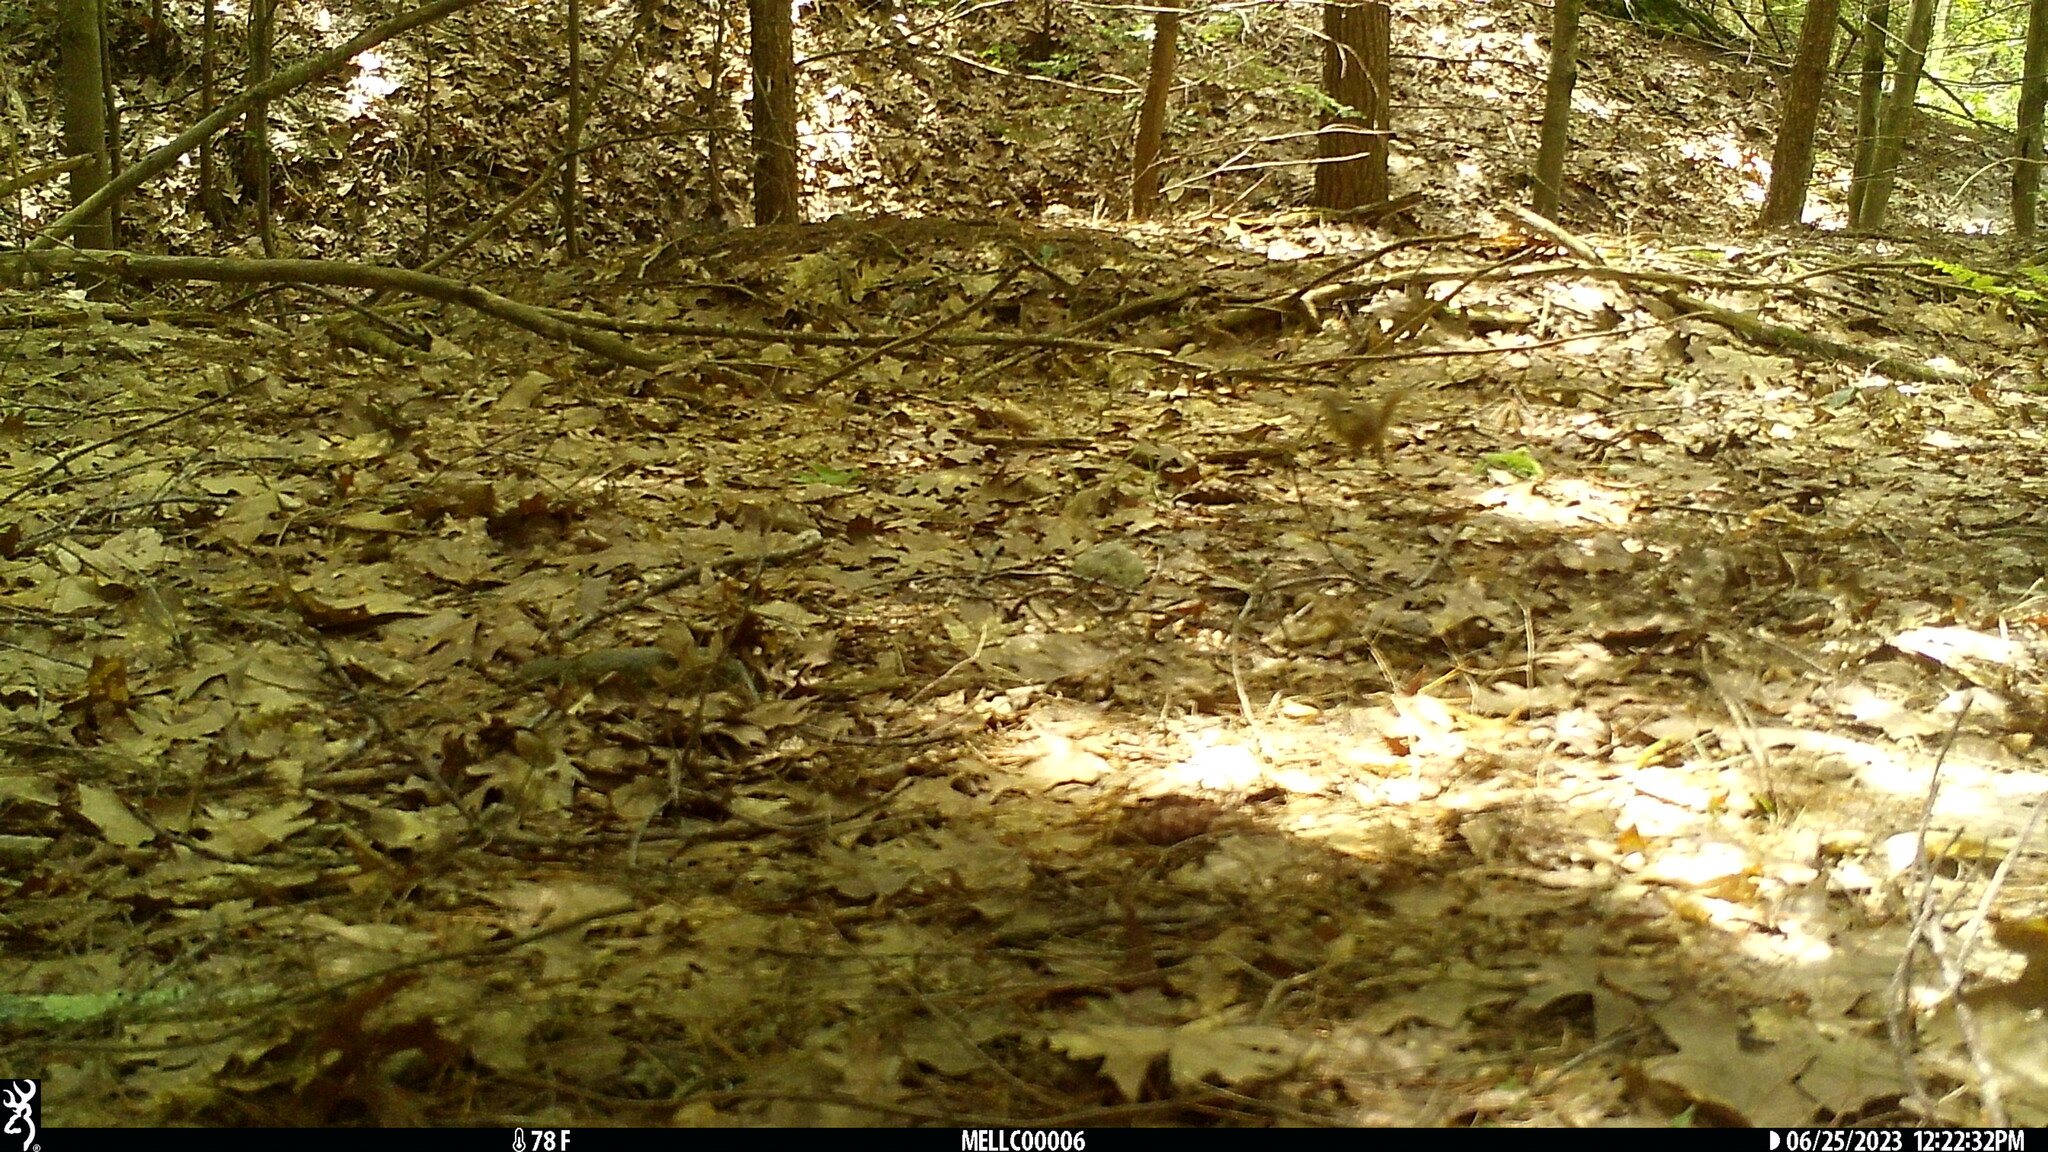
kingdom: Animalia
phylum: Chordata
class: Mammalia
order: Rodentia
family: Sciuridae
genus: Tamias
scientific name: Tamias striatus
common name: Eastern chipmunk
